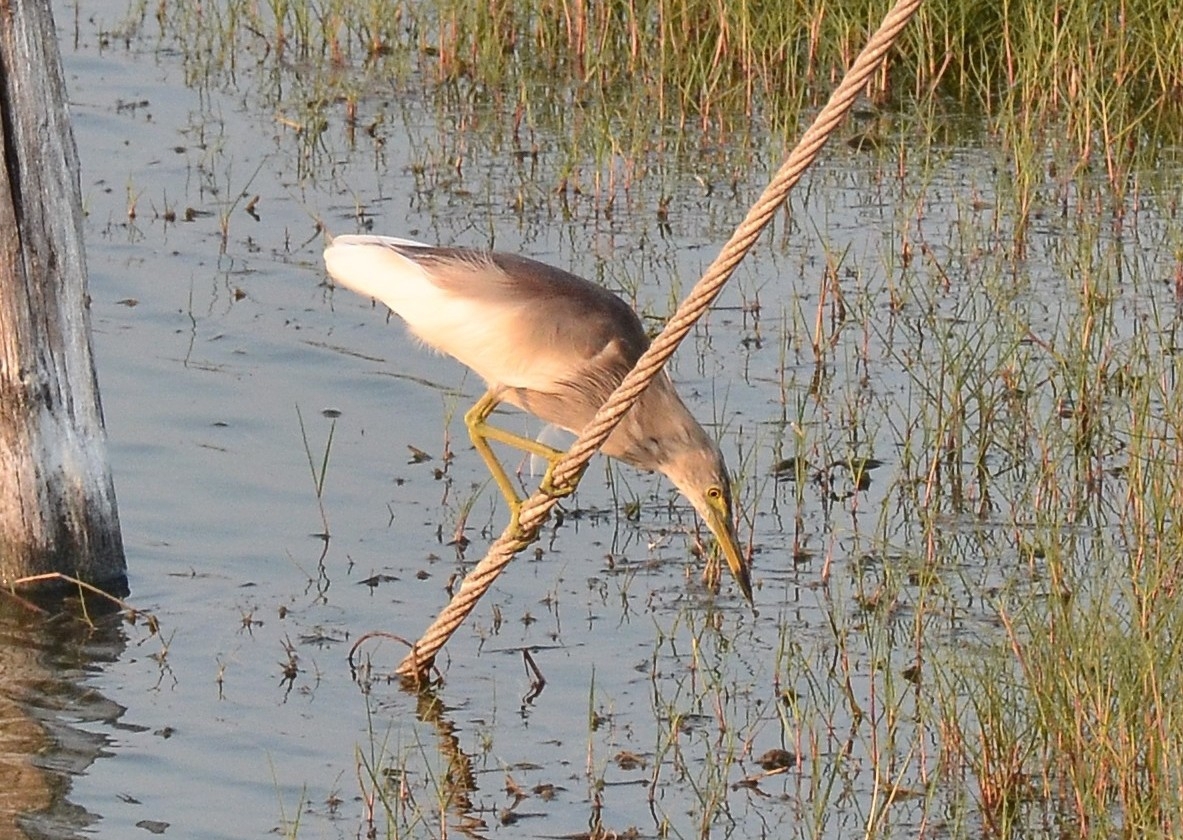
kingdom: Animalia
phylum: Chordata
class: Aves
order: Pelecaniformes
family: Ardeidae
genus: Ardeola
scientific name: Ardeola grayii
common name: Indian pond heron
